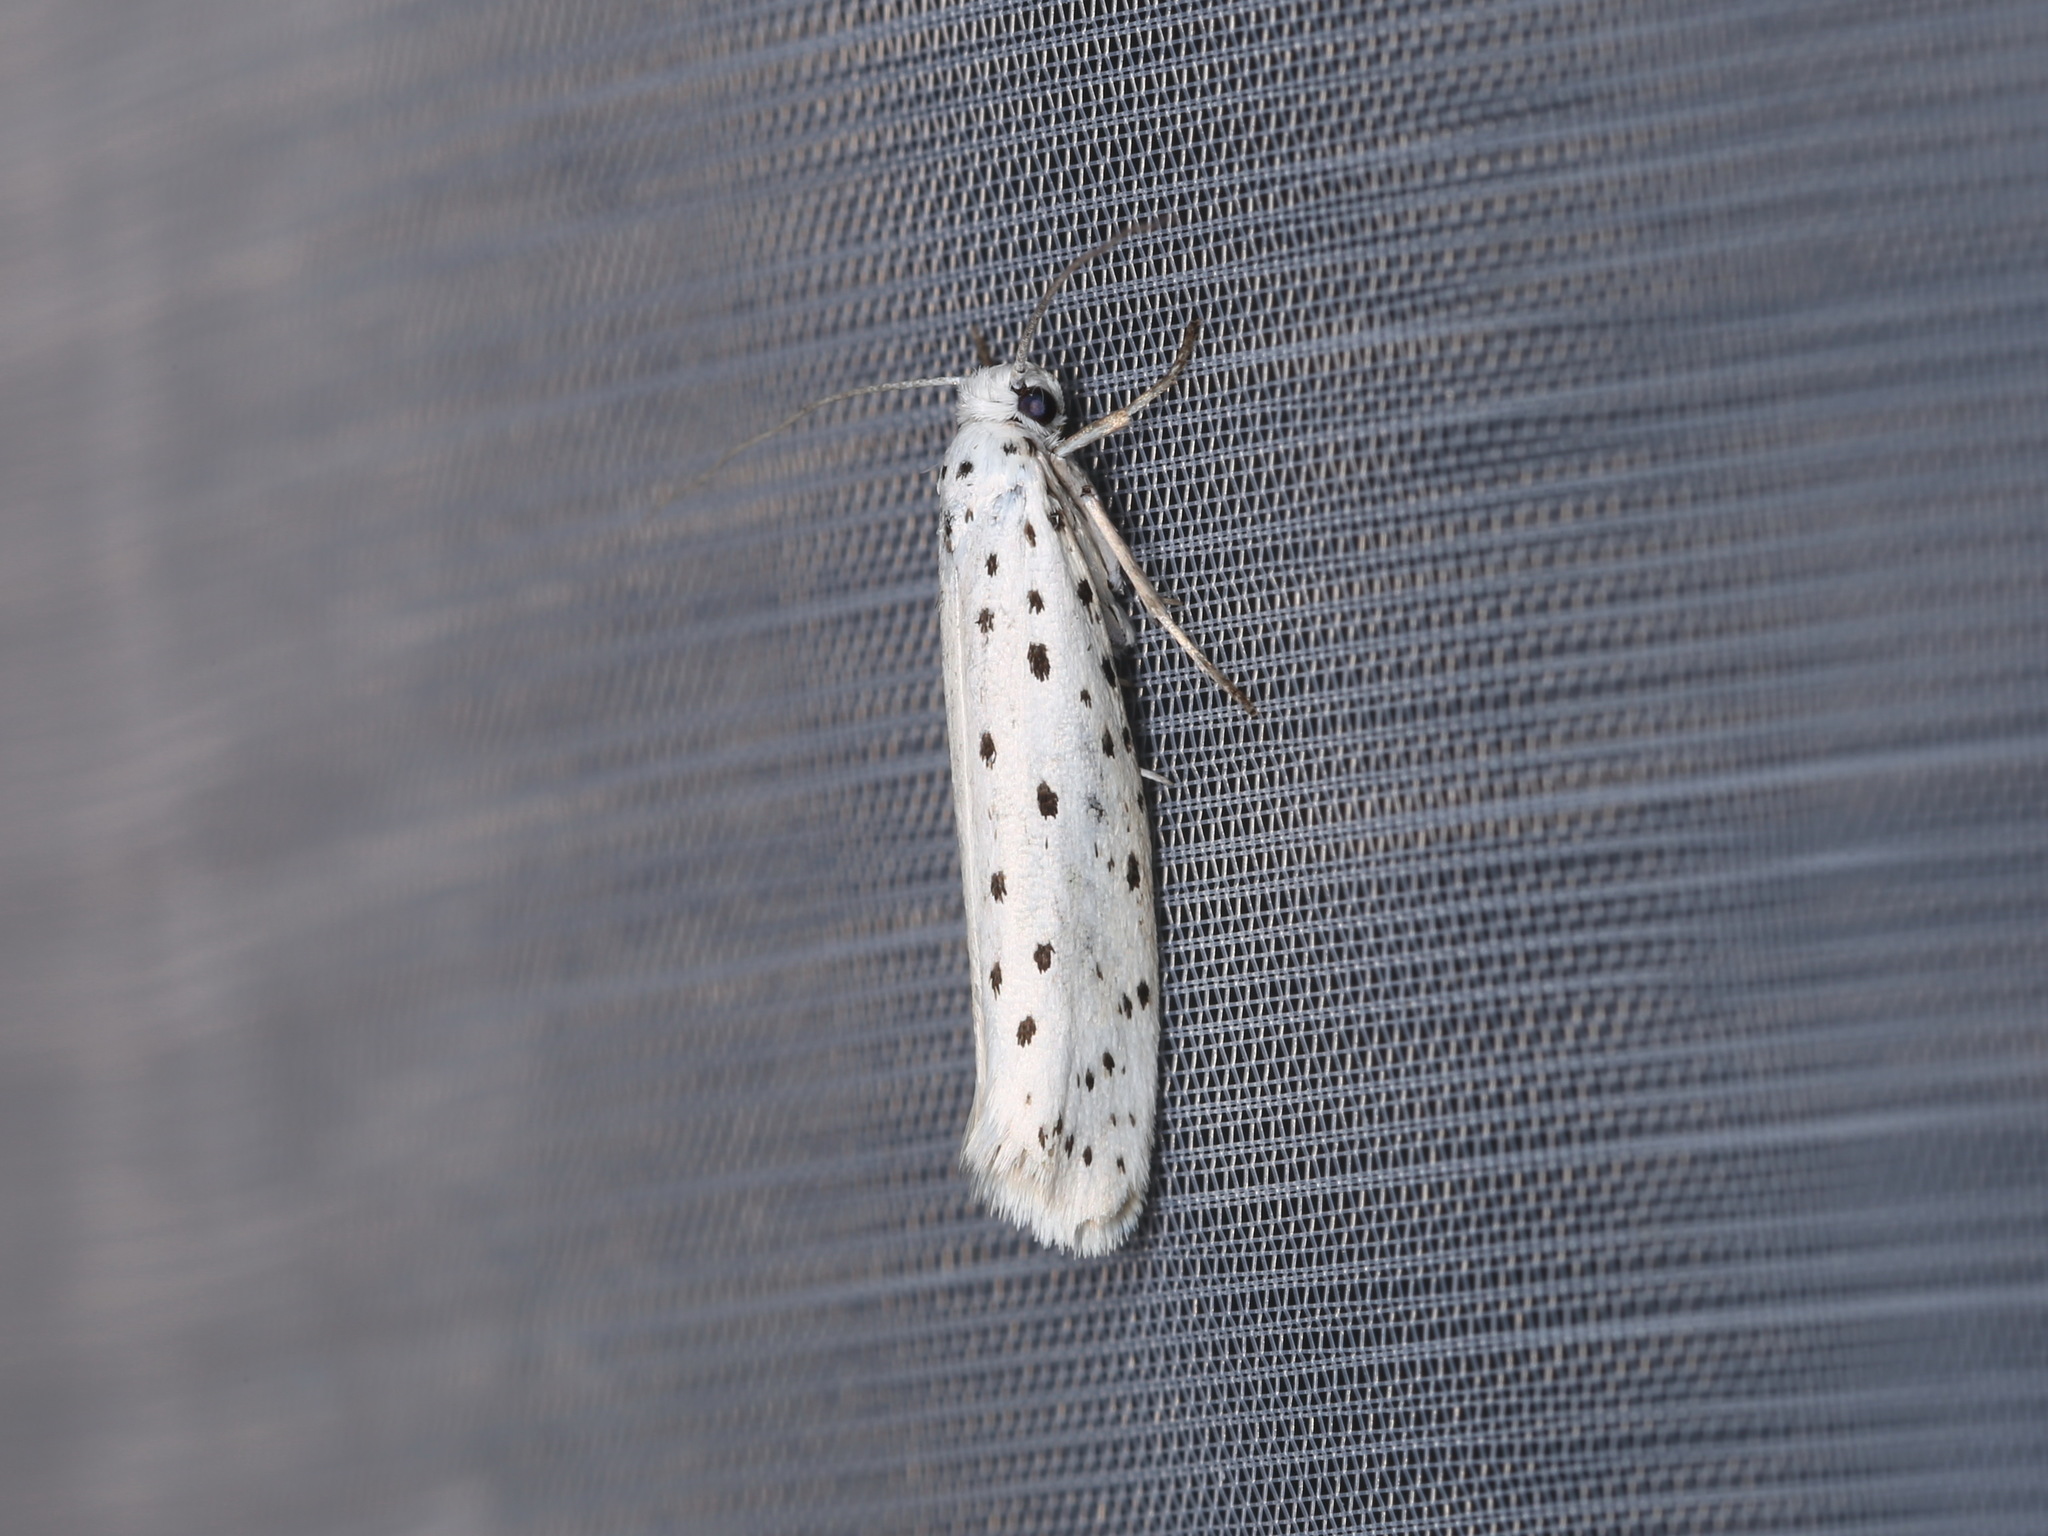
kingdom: Animalia
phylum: Arthropoda
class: Insecta
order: Lepidoptera
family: Yponomeutidae
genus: Yponomeuta
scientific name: Yponomeuta evonymella
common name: Bird-cherry ermine
